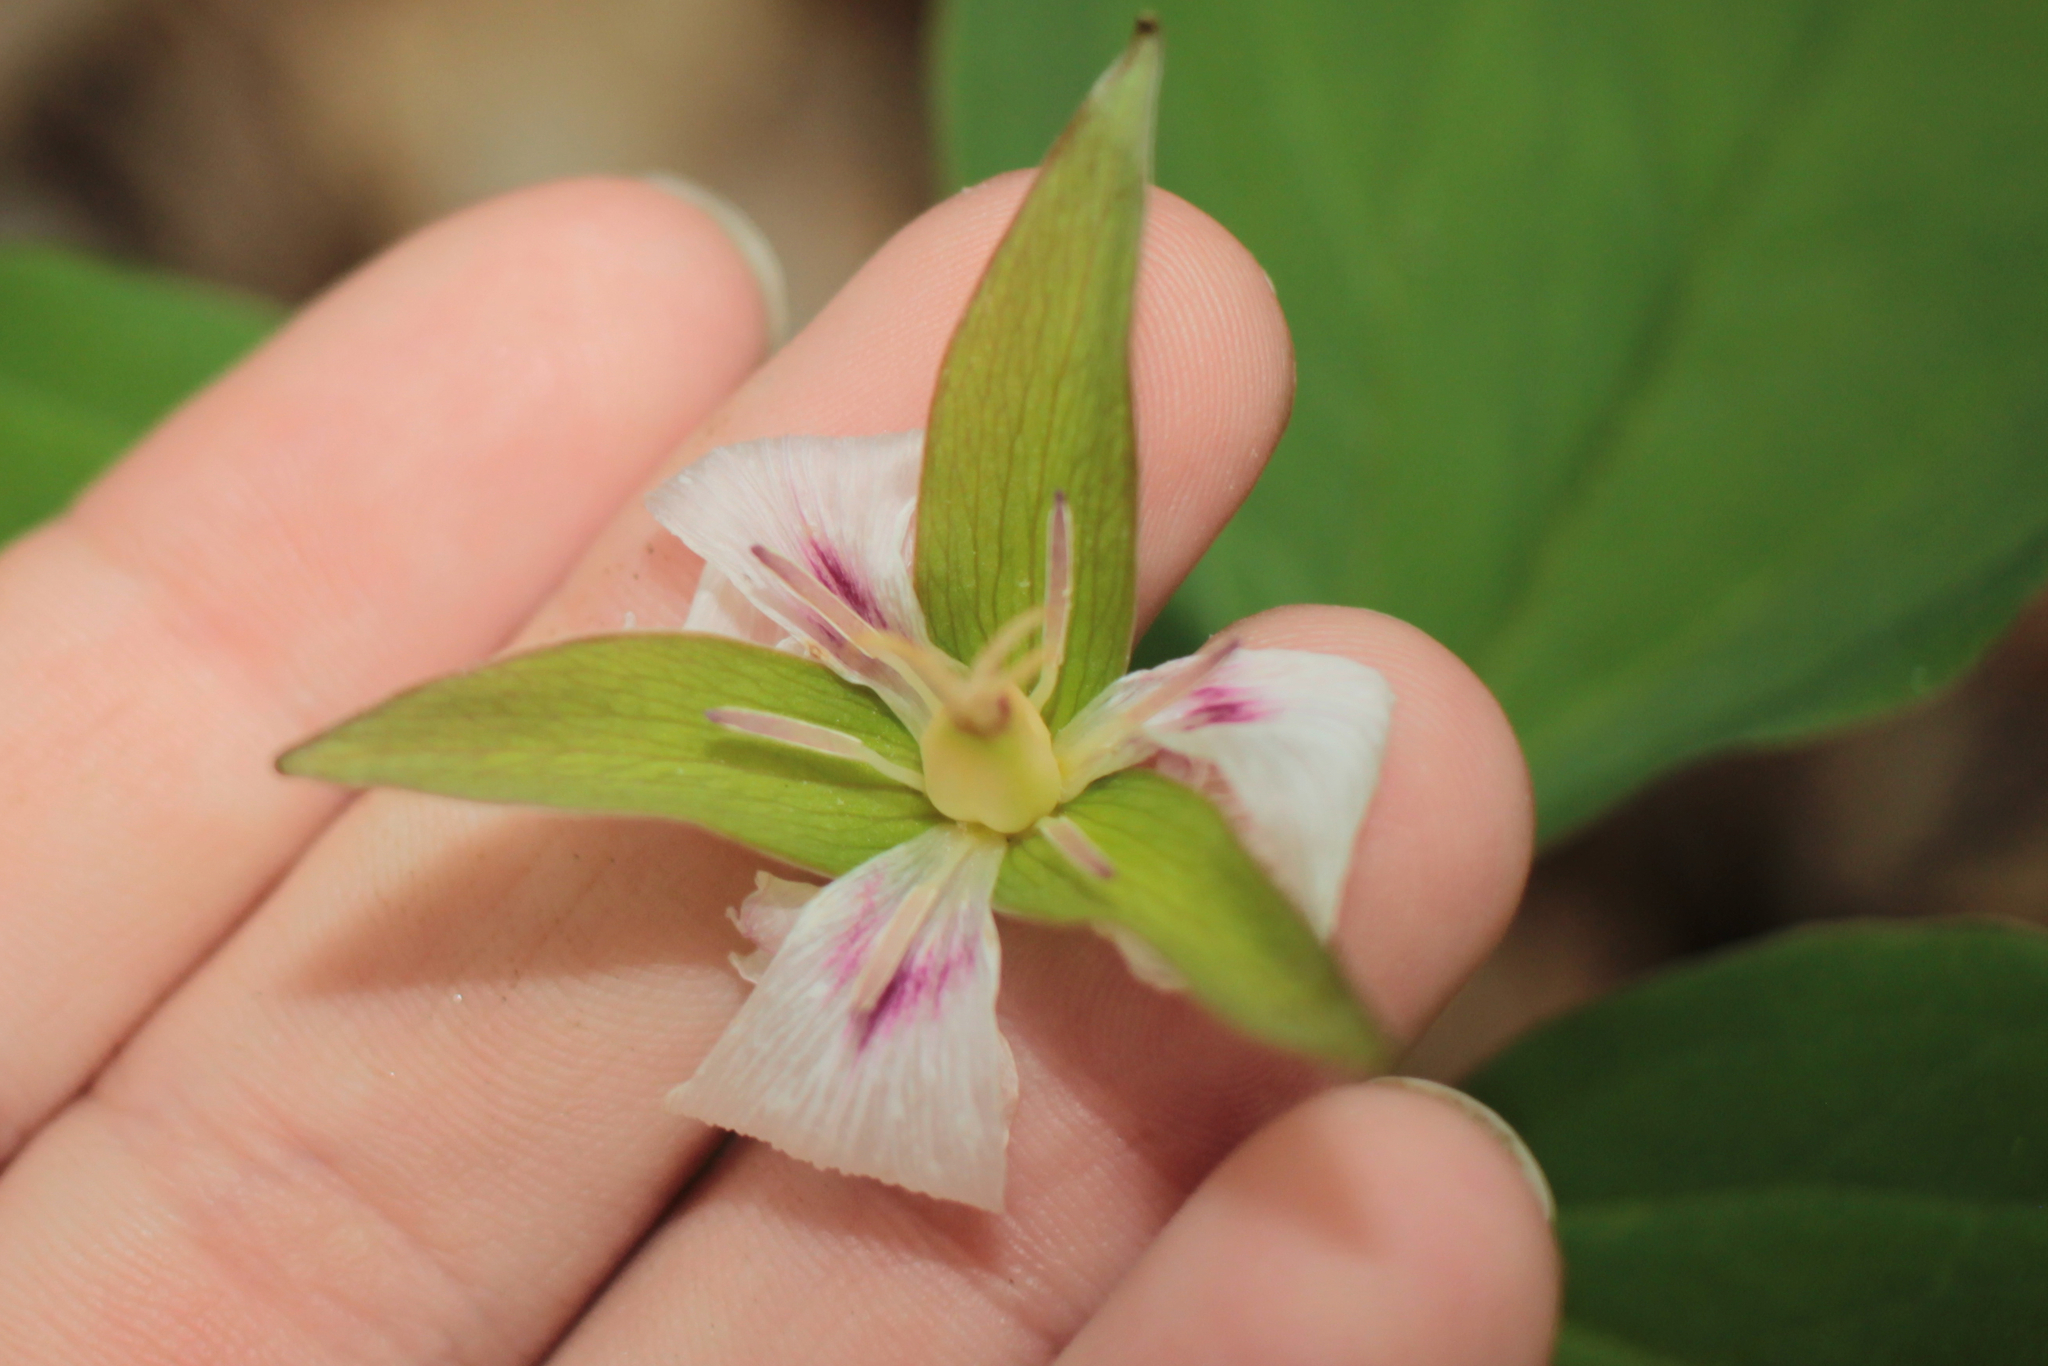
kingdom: Plantae
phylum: Tracheophyta
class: Liliopsida
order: Liliales
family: Melanthiaceae
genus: Trillium
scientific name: Trillium undulatum
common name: Paint trillium
